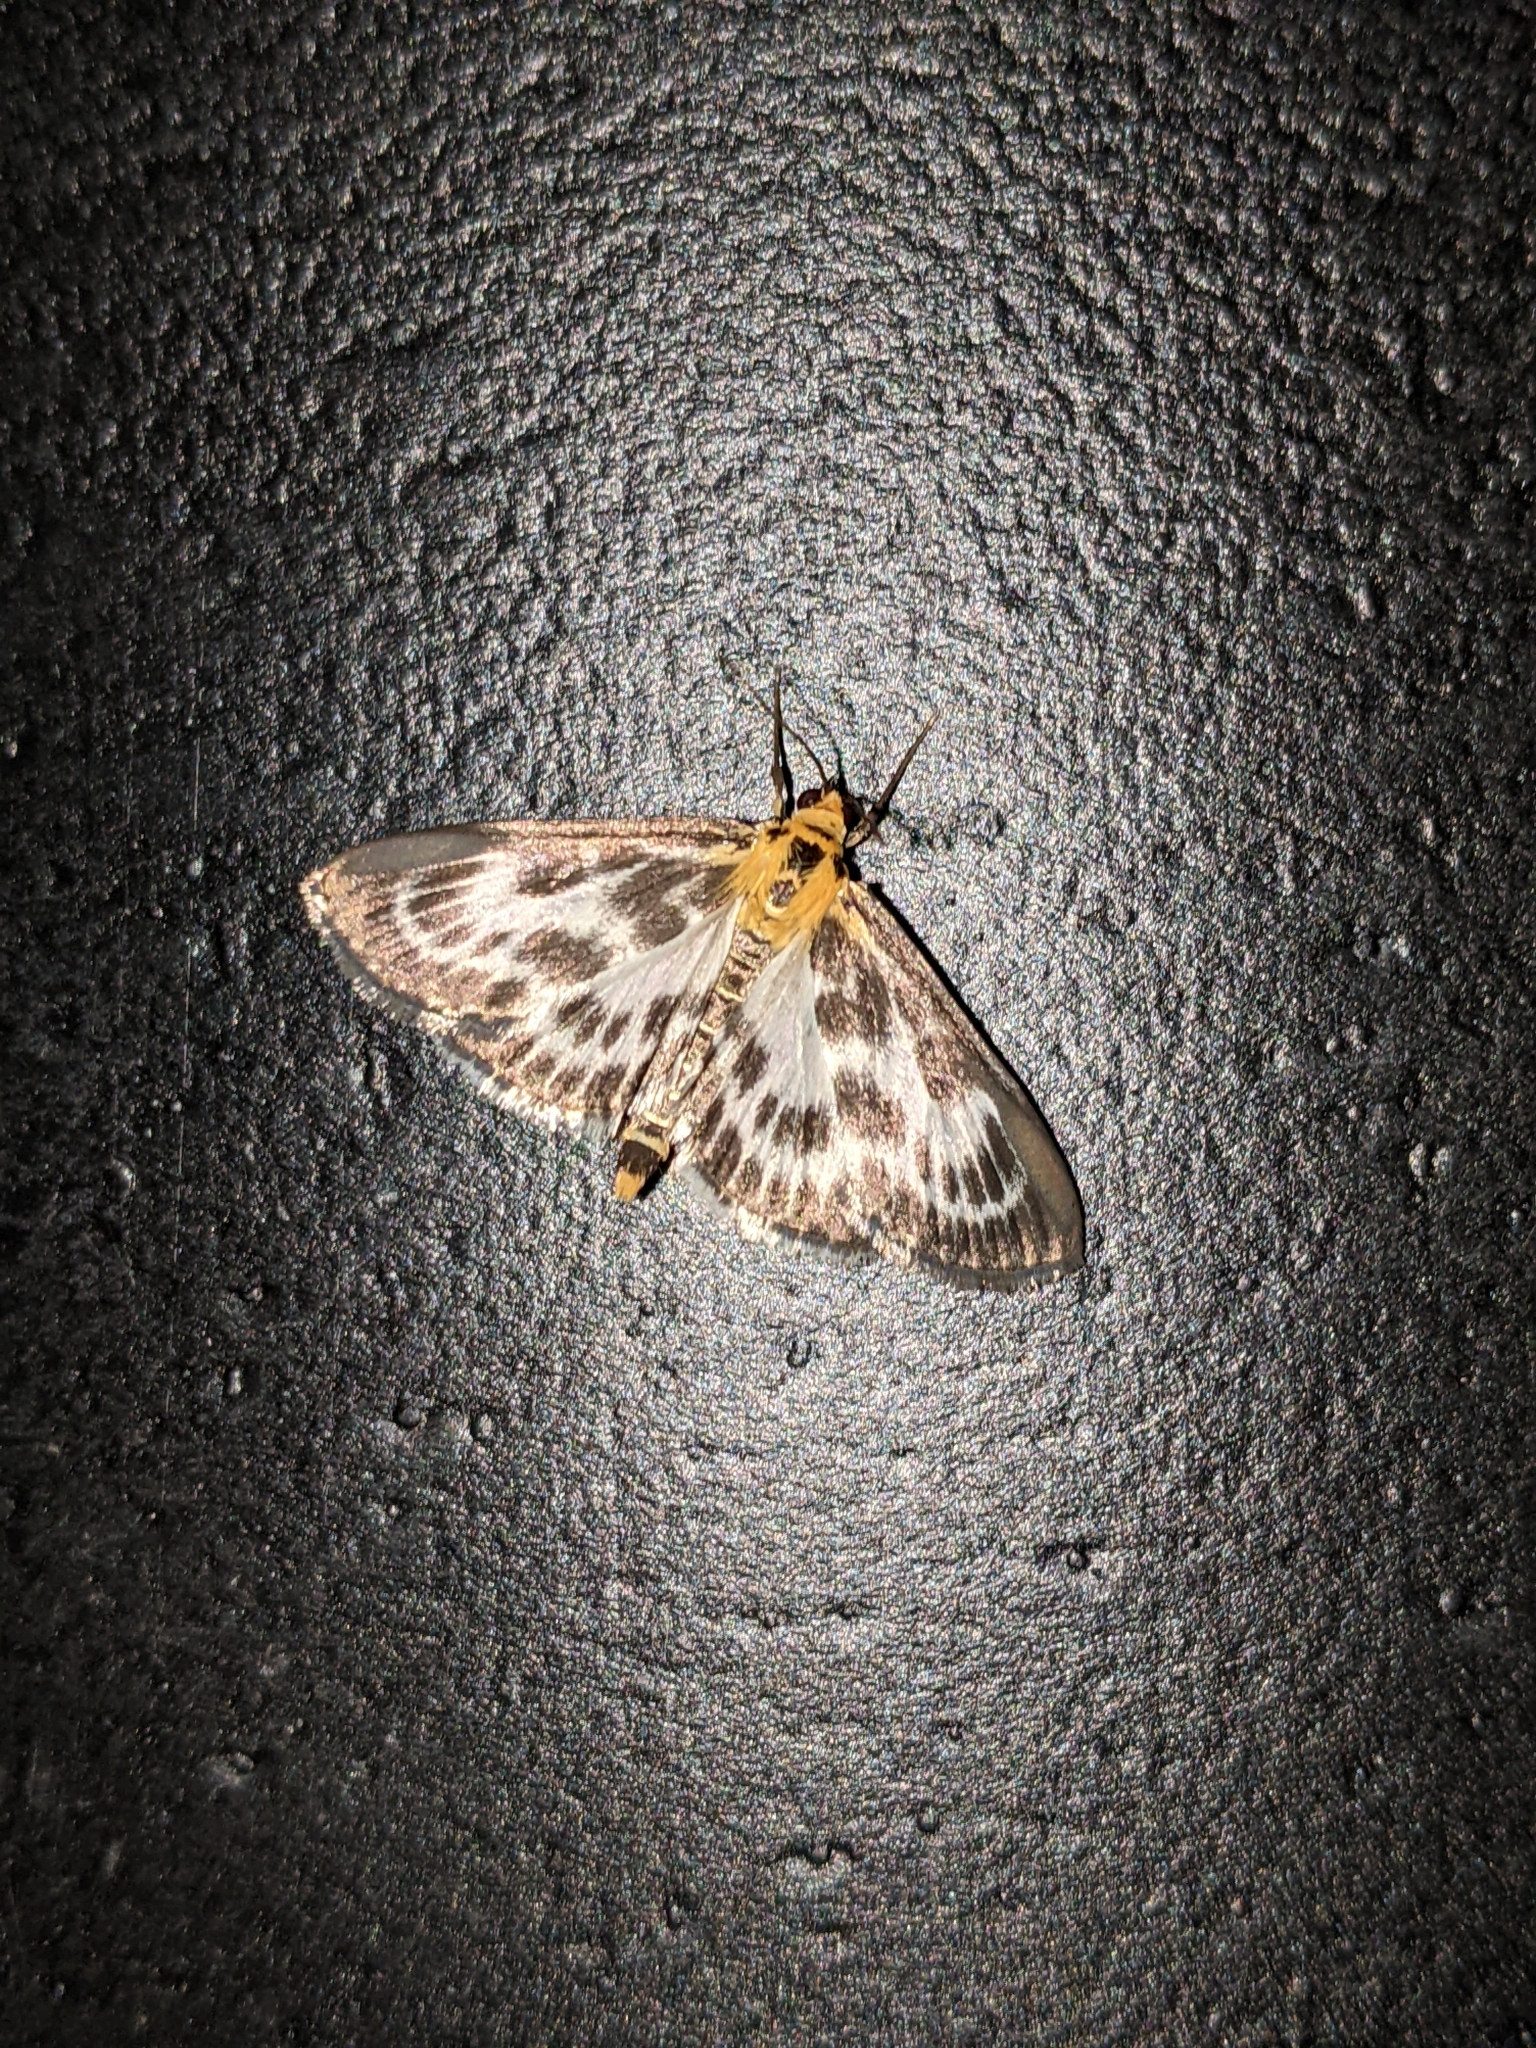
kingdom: Animalia
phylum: Arthropoda
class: Insecta
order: Lepidoptera
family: Crambidae
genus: Anania
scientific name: Anania hortulata
